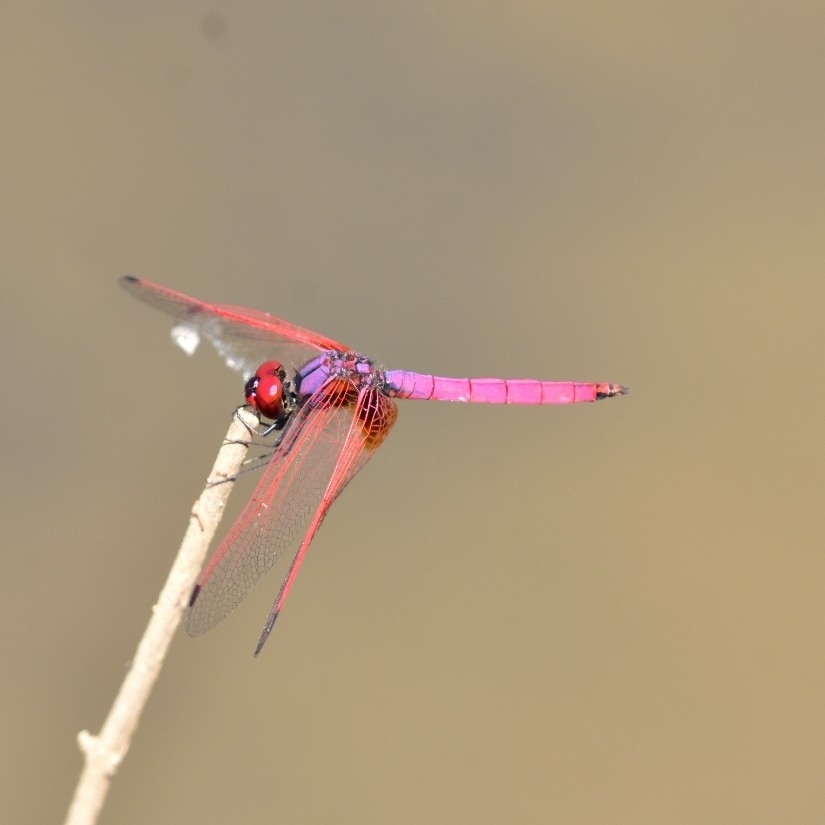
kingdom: Animalia
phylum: Arthropoda
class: Insecta
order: Odonata
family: Libellulidae
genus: Trithemis
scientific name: Trithemis aurora
